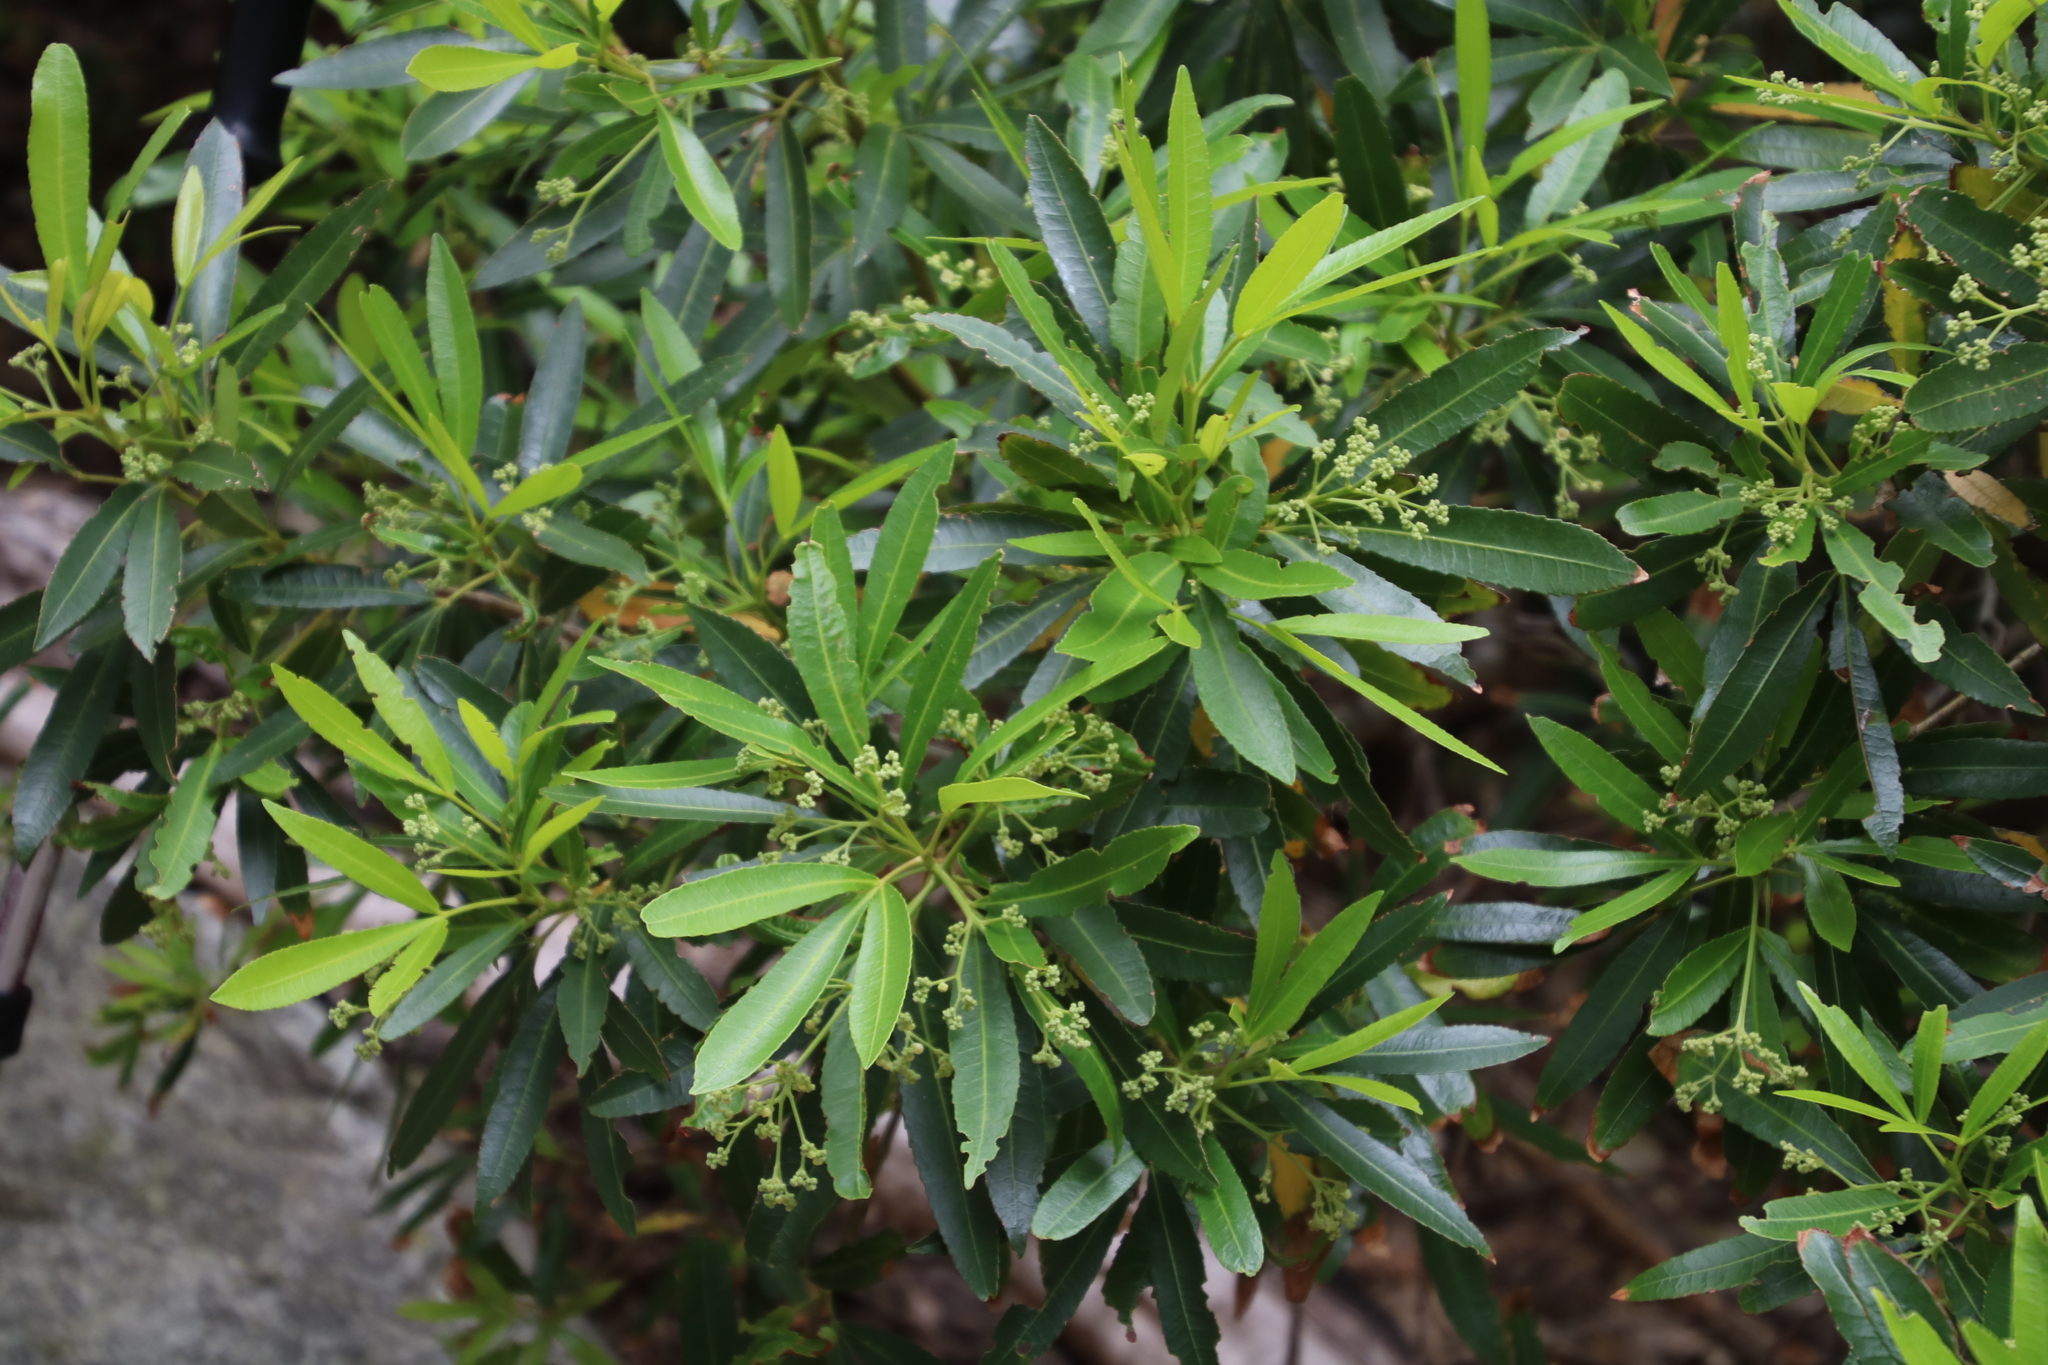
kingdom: Plantae
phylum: Tracheophyta
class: Magnoliopsida
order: Oxalidales
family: Cunoniaceae
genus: Platylophus
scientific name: Platylophus trifoliatus
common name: White alder
